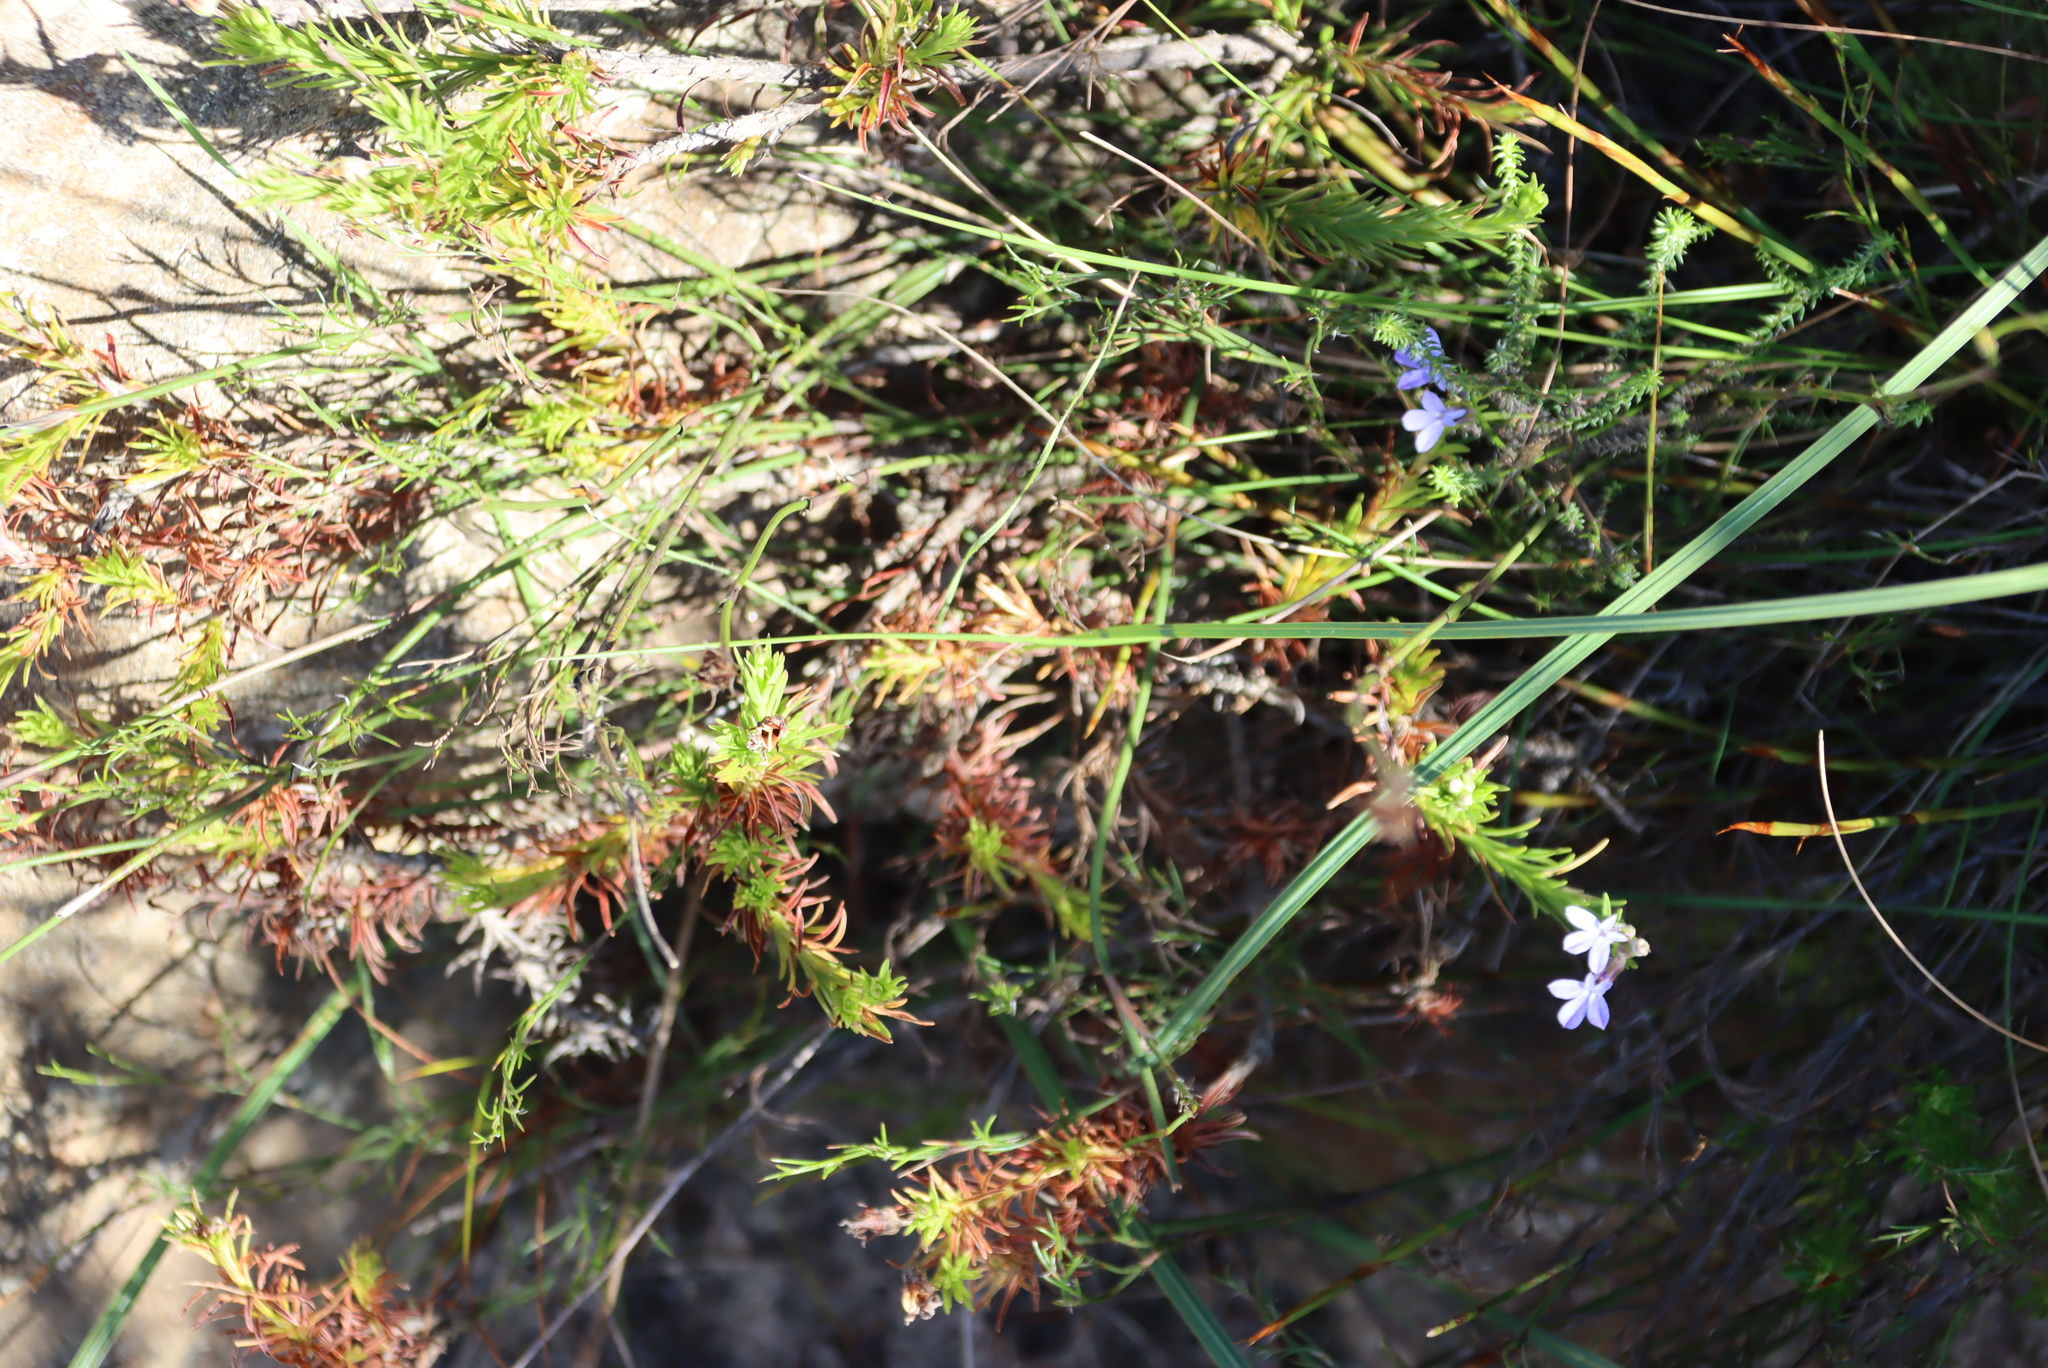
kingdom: Plantae
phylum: Tracheophyta
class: Magnoliopsida
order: Asterales
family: Campanulaceae
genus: Lobelia
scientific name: Lobelia pinifolia
